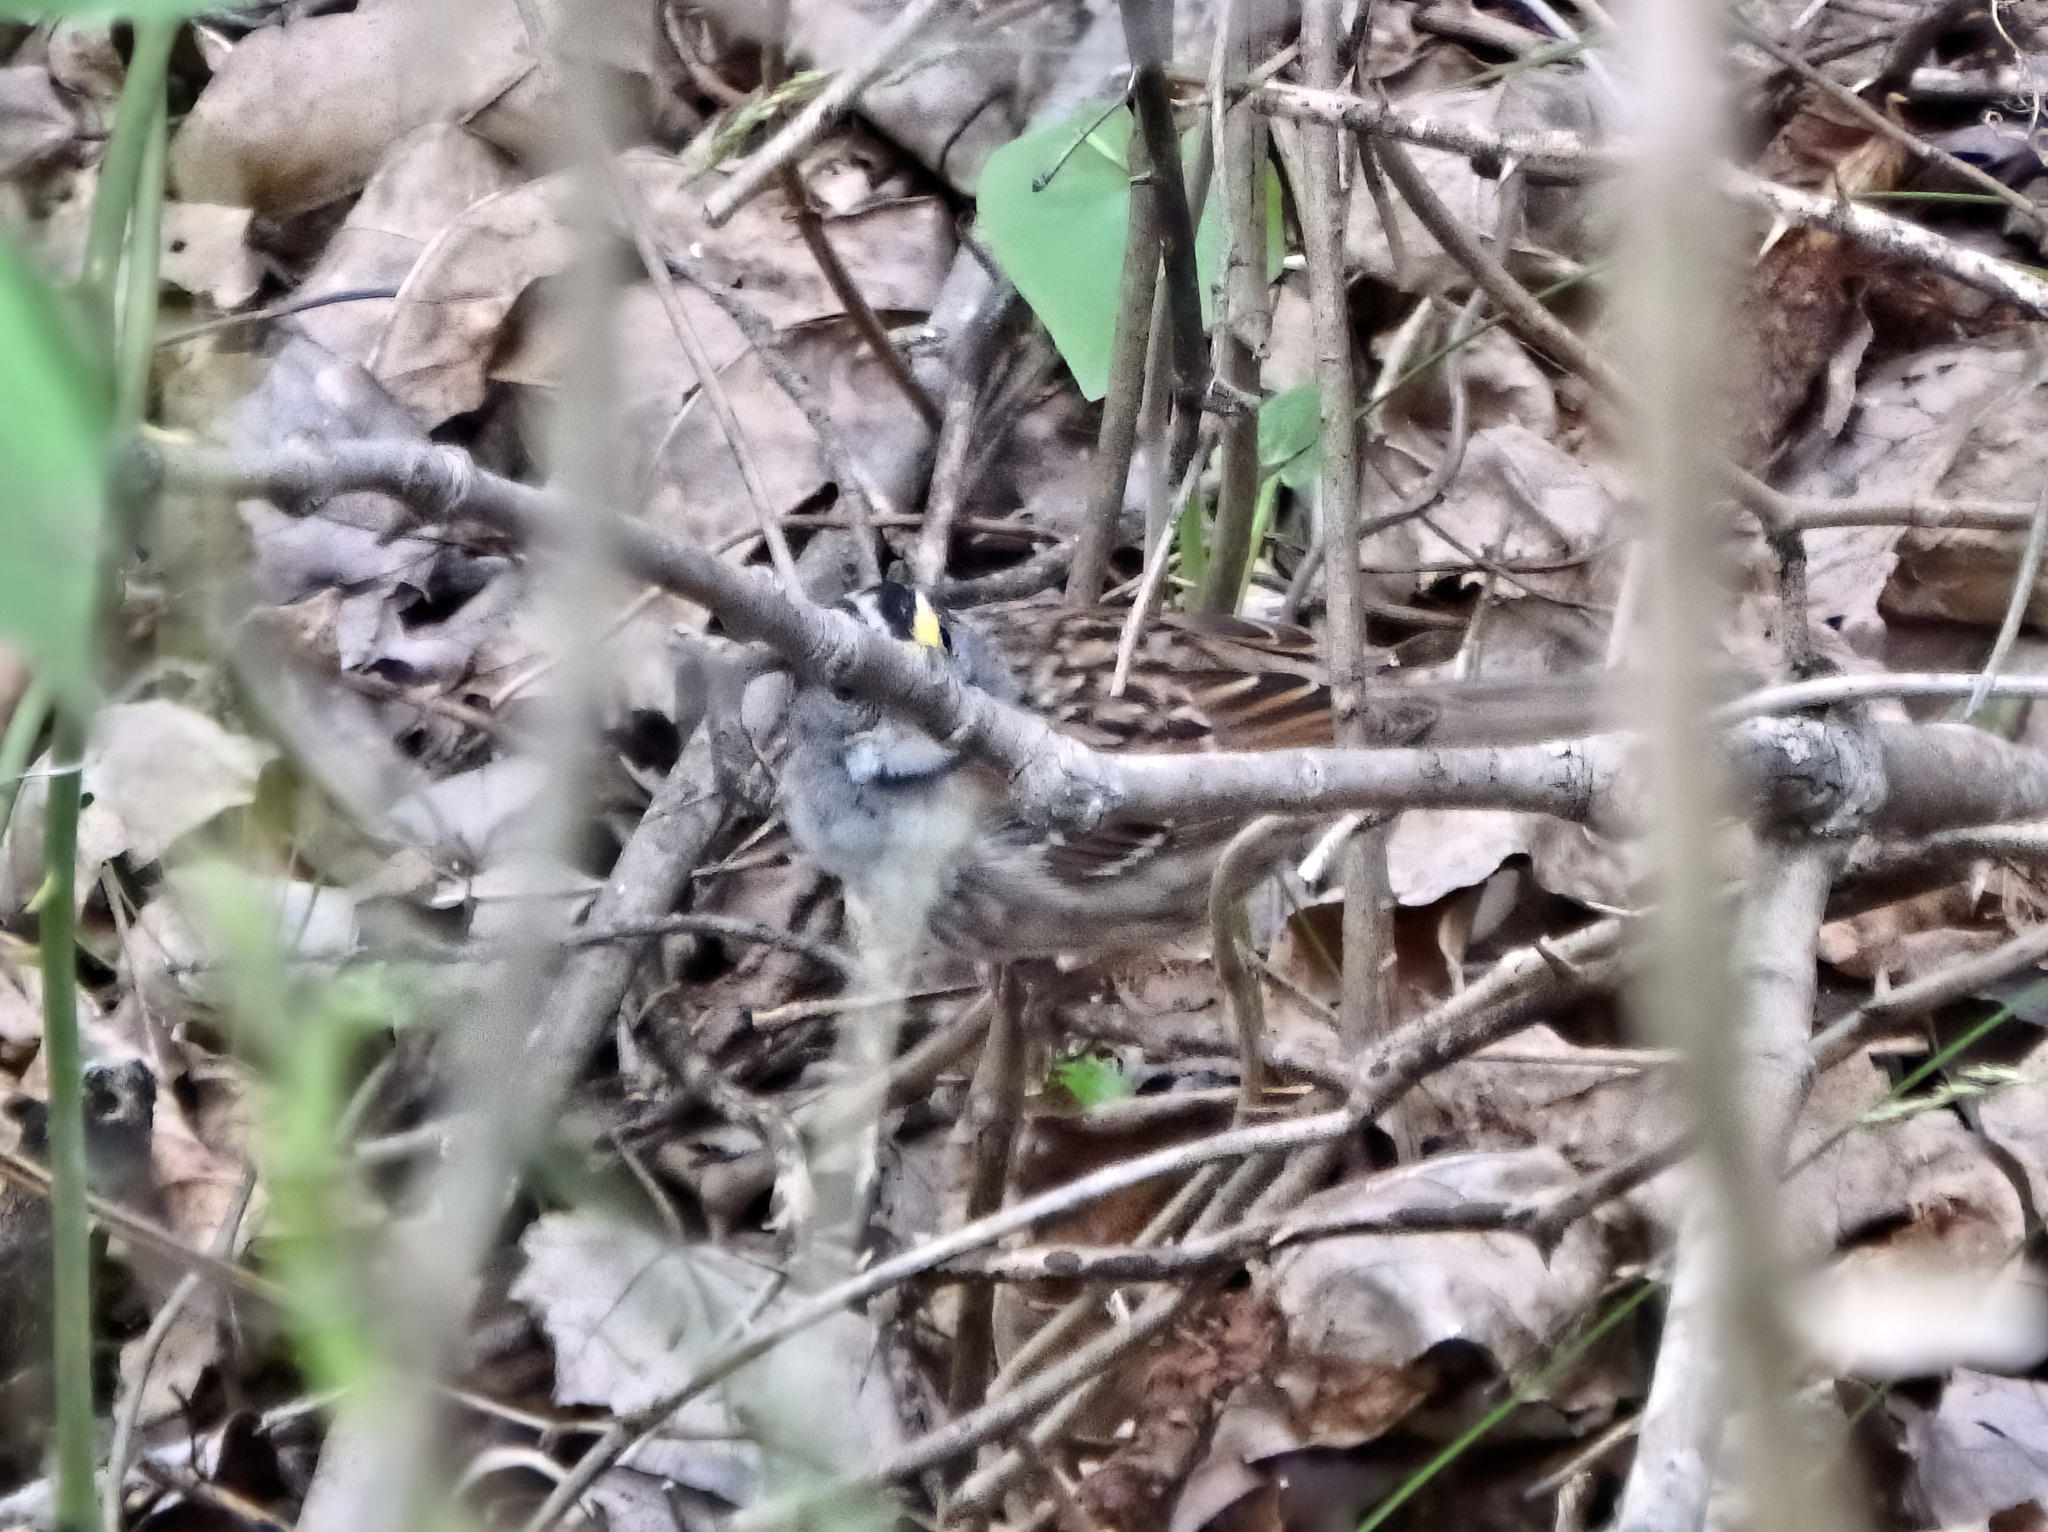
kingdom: Animalia
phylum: Chordata
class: Aves
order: Passeriformes
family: Passerellidae
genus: Zonotrichia
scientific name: Zonotrichia albicollis
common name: White-throated sparrow
